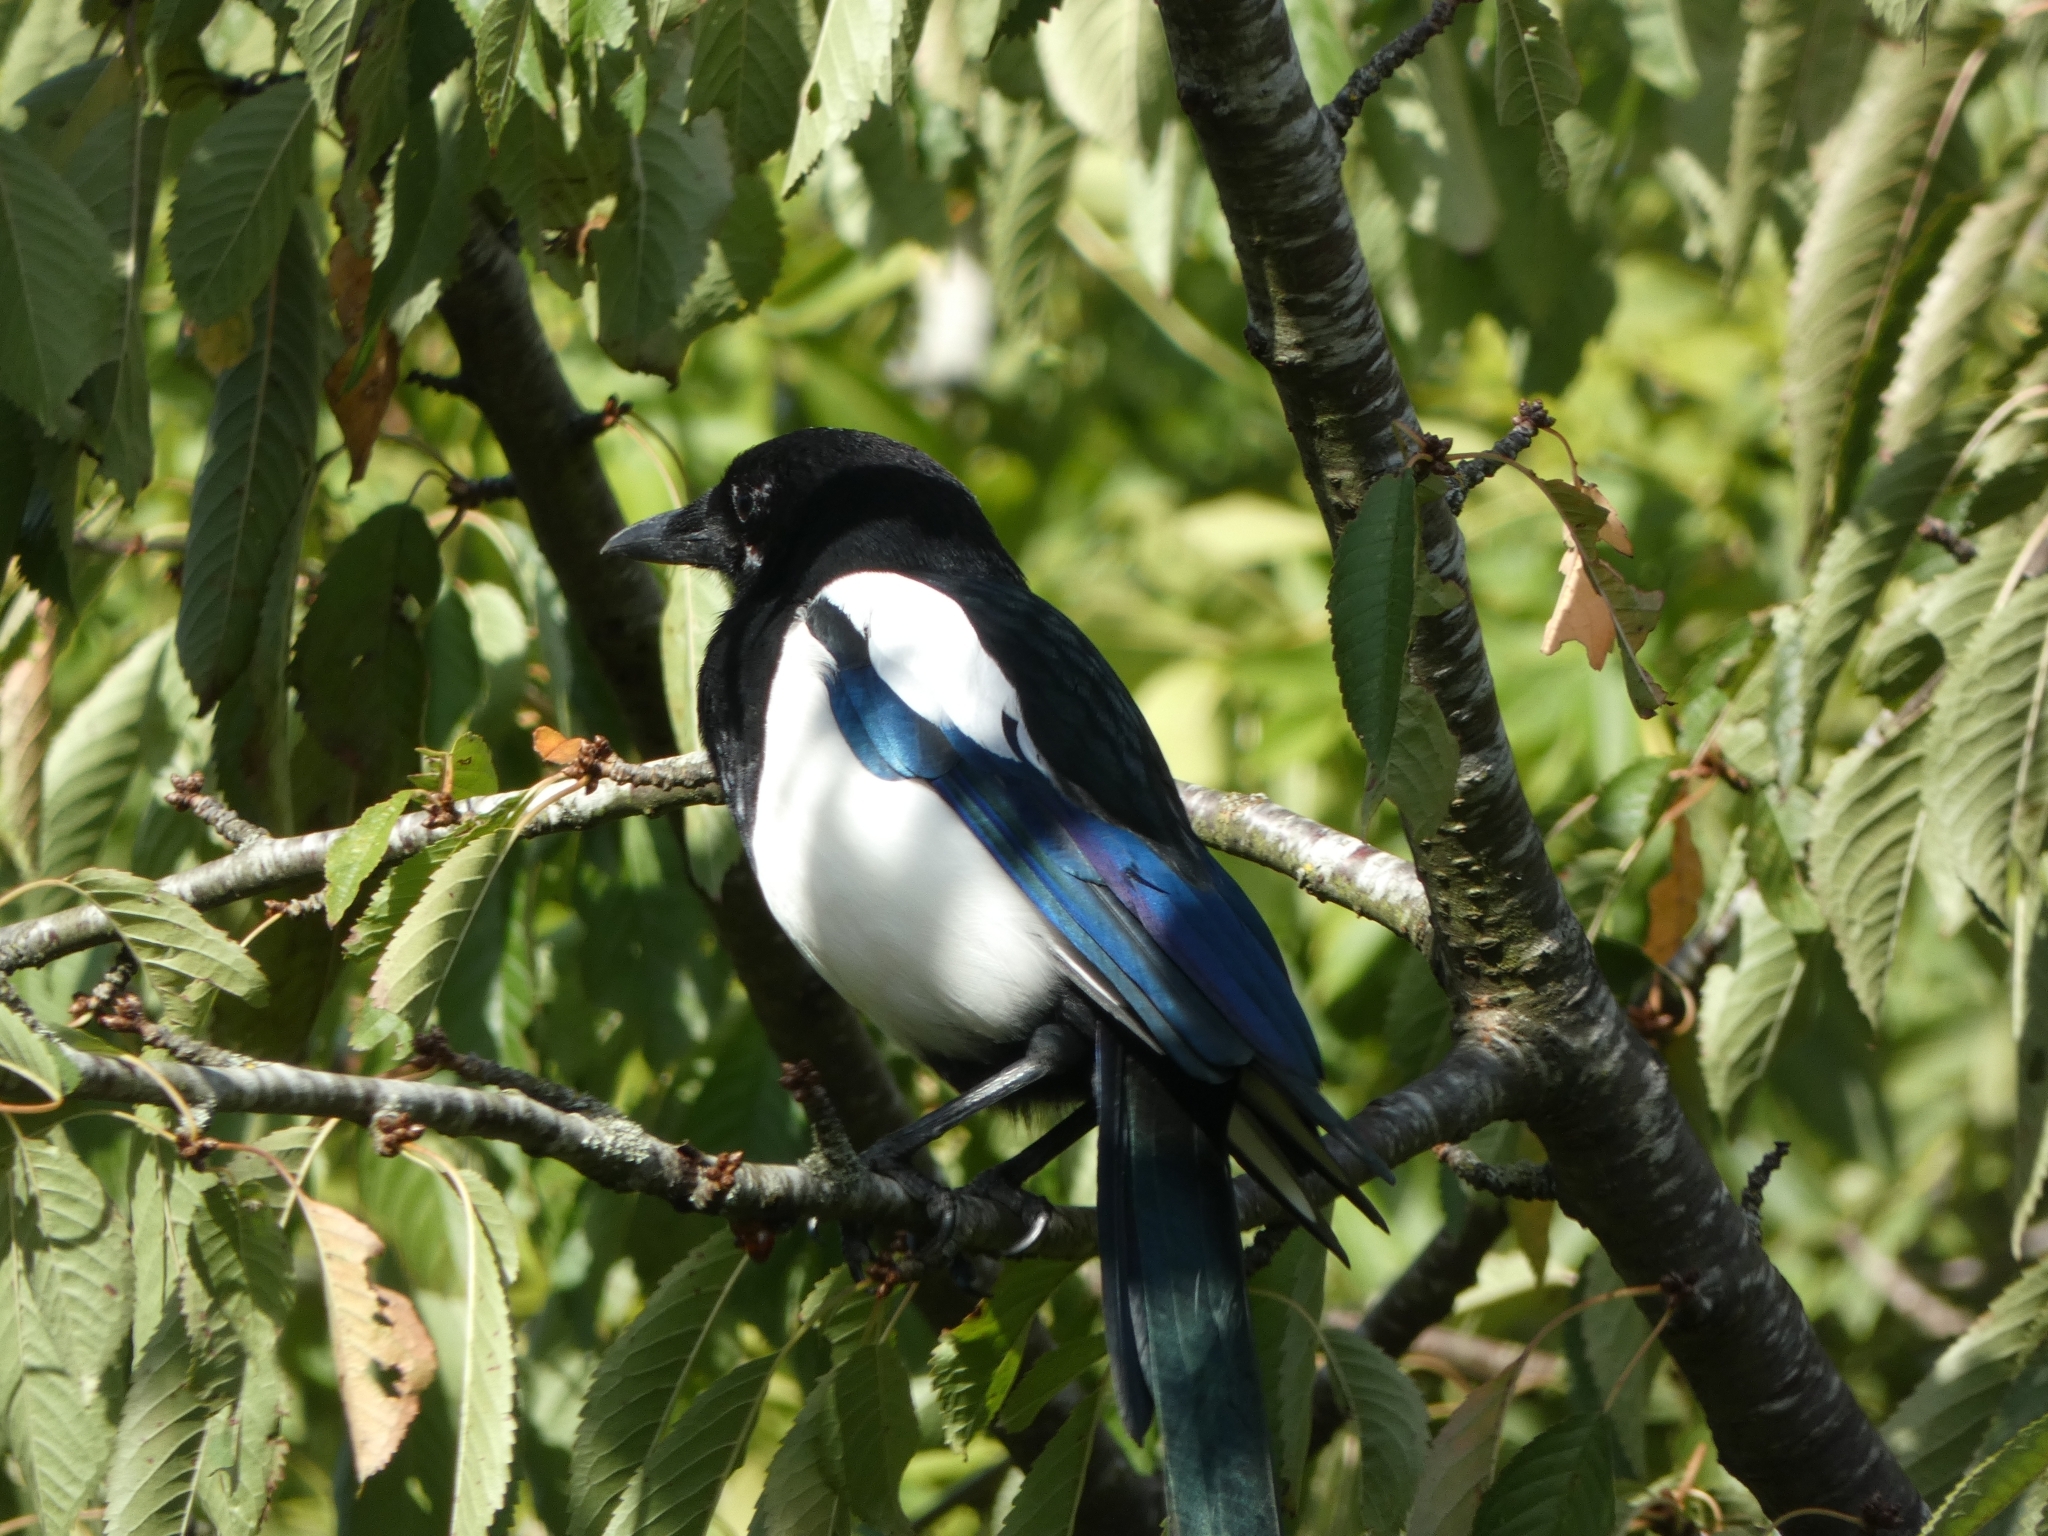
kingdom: Animalia
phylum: Chordata
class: Aves
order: Passeriformes
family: Corvidae
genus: Pica
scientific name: Pica pica
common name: Eurasian magpie
